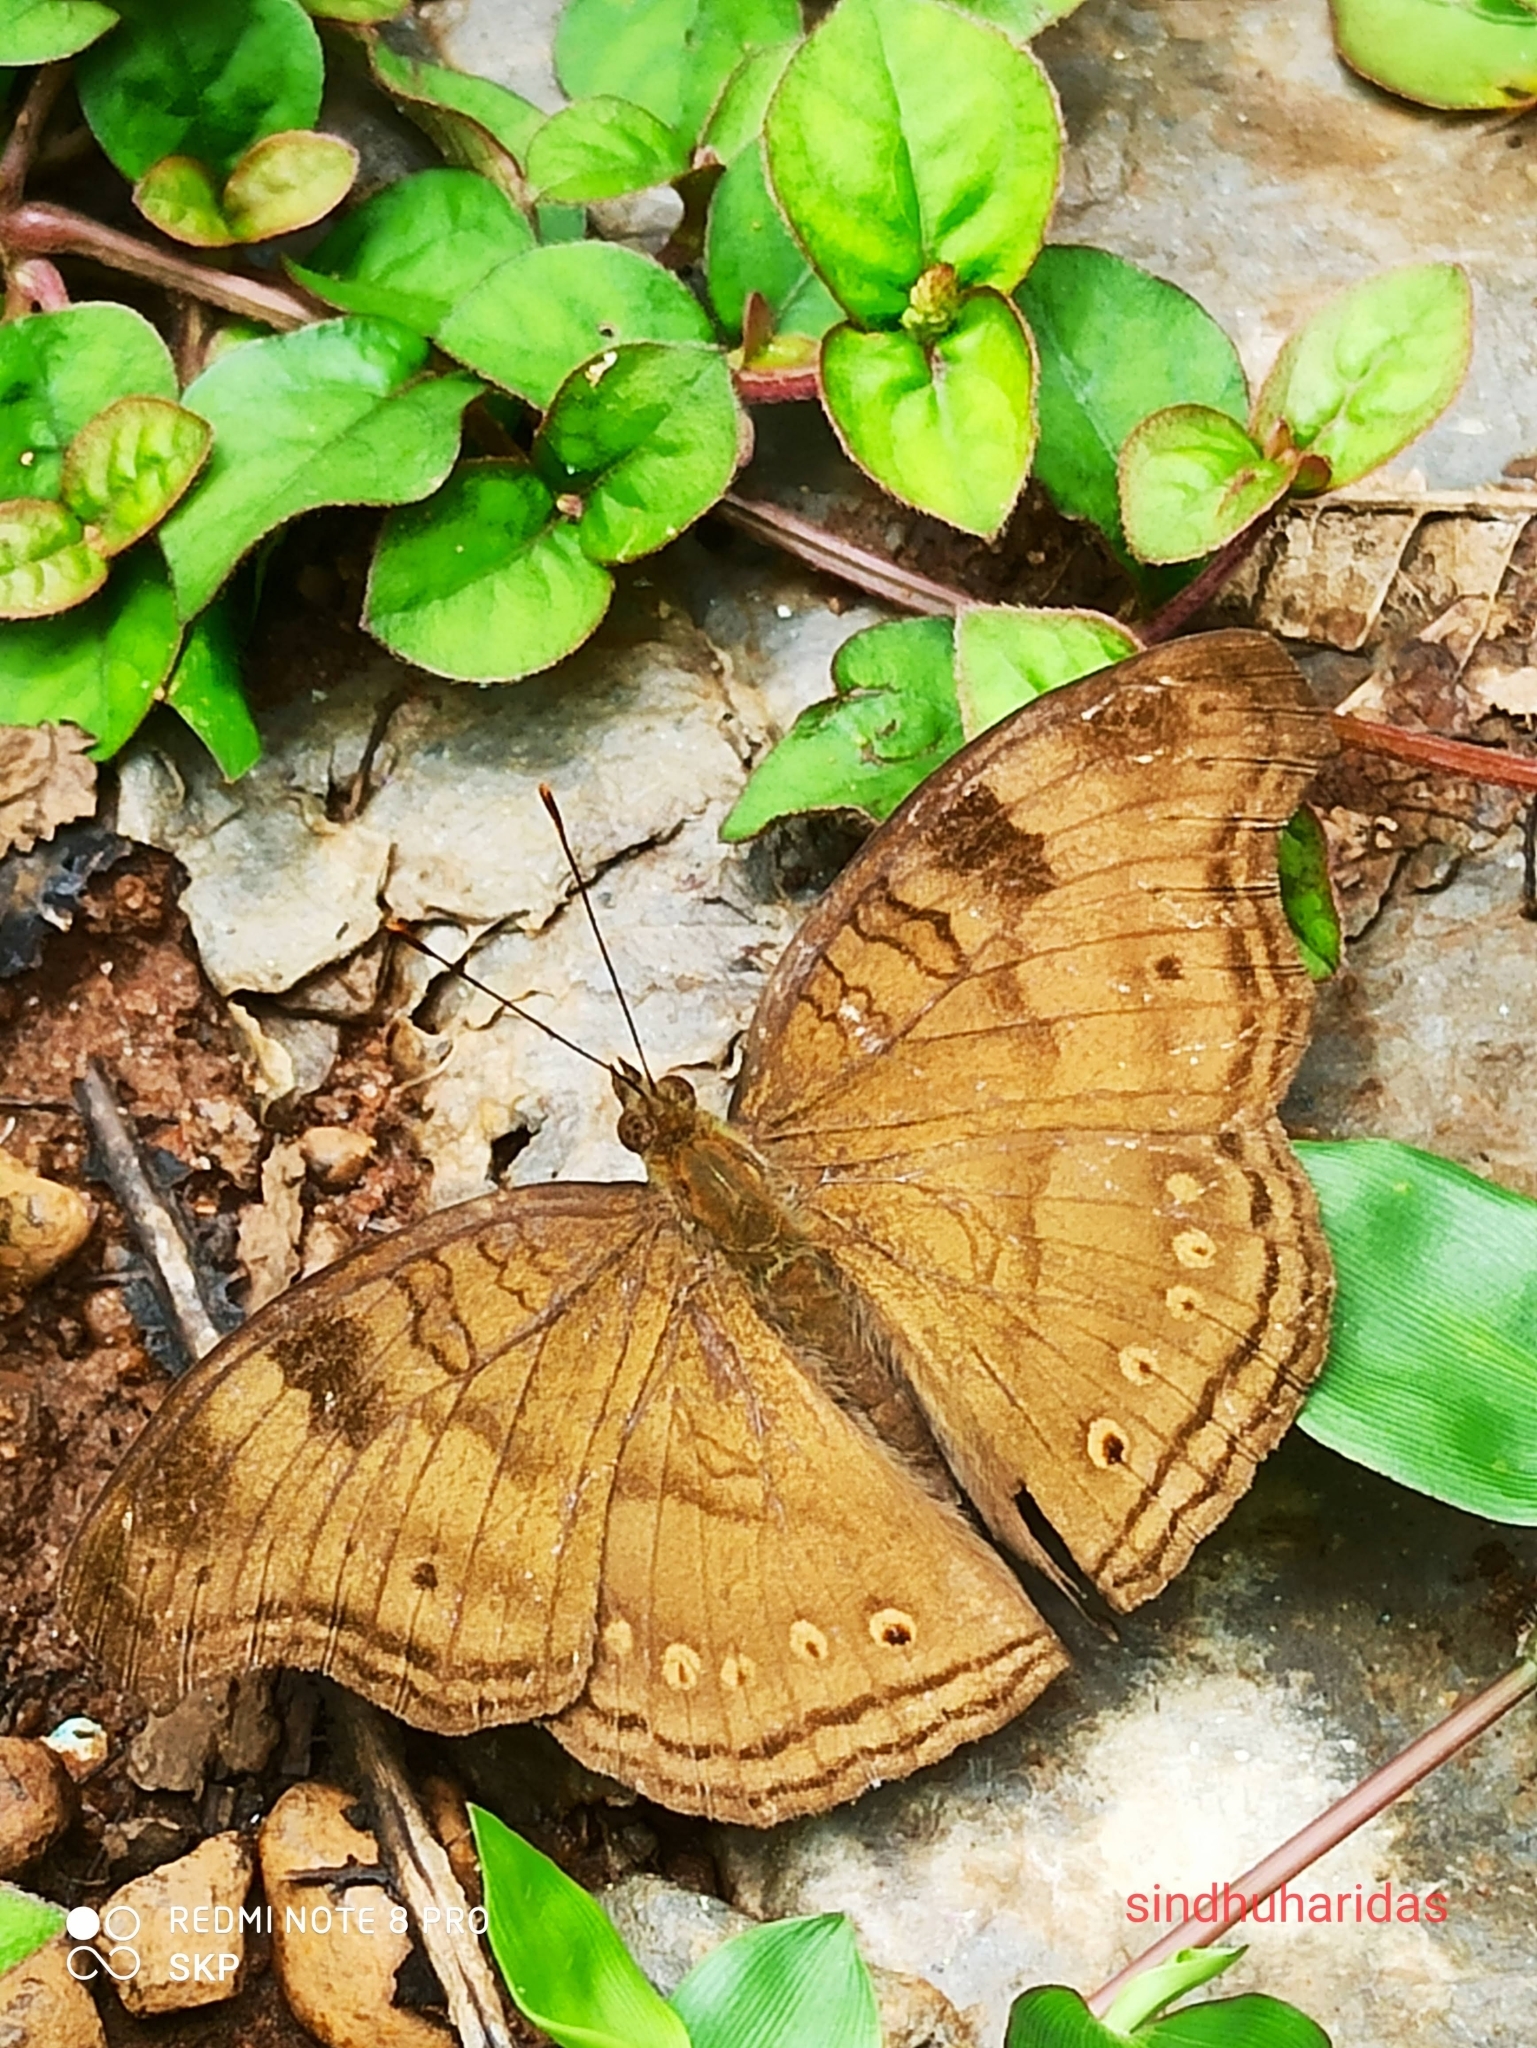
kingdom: Animalia
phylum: Arthropoda
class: Insecta
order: Lepidoptera
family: Nymphalidae
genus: Junonia
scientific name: Junonia iphita
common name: Chocolate pansy
